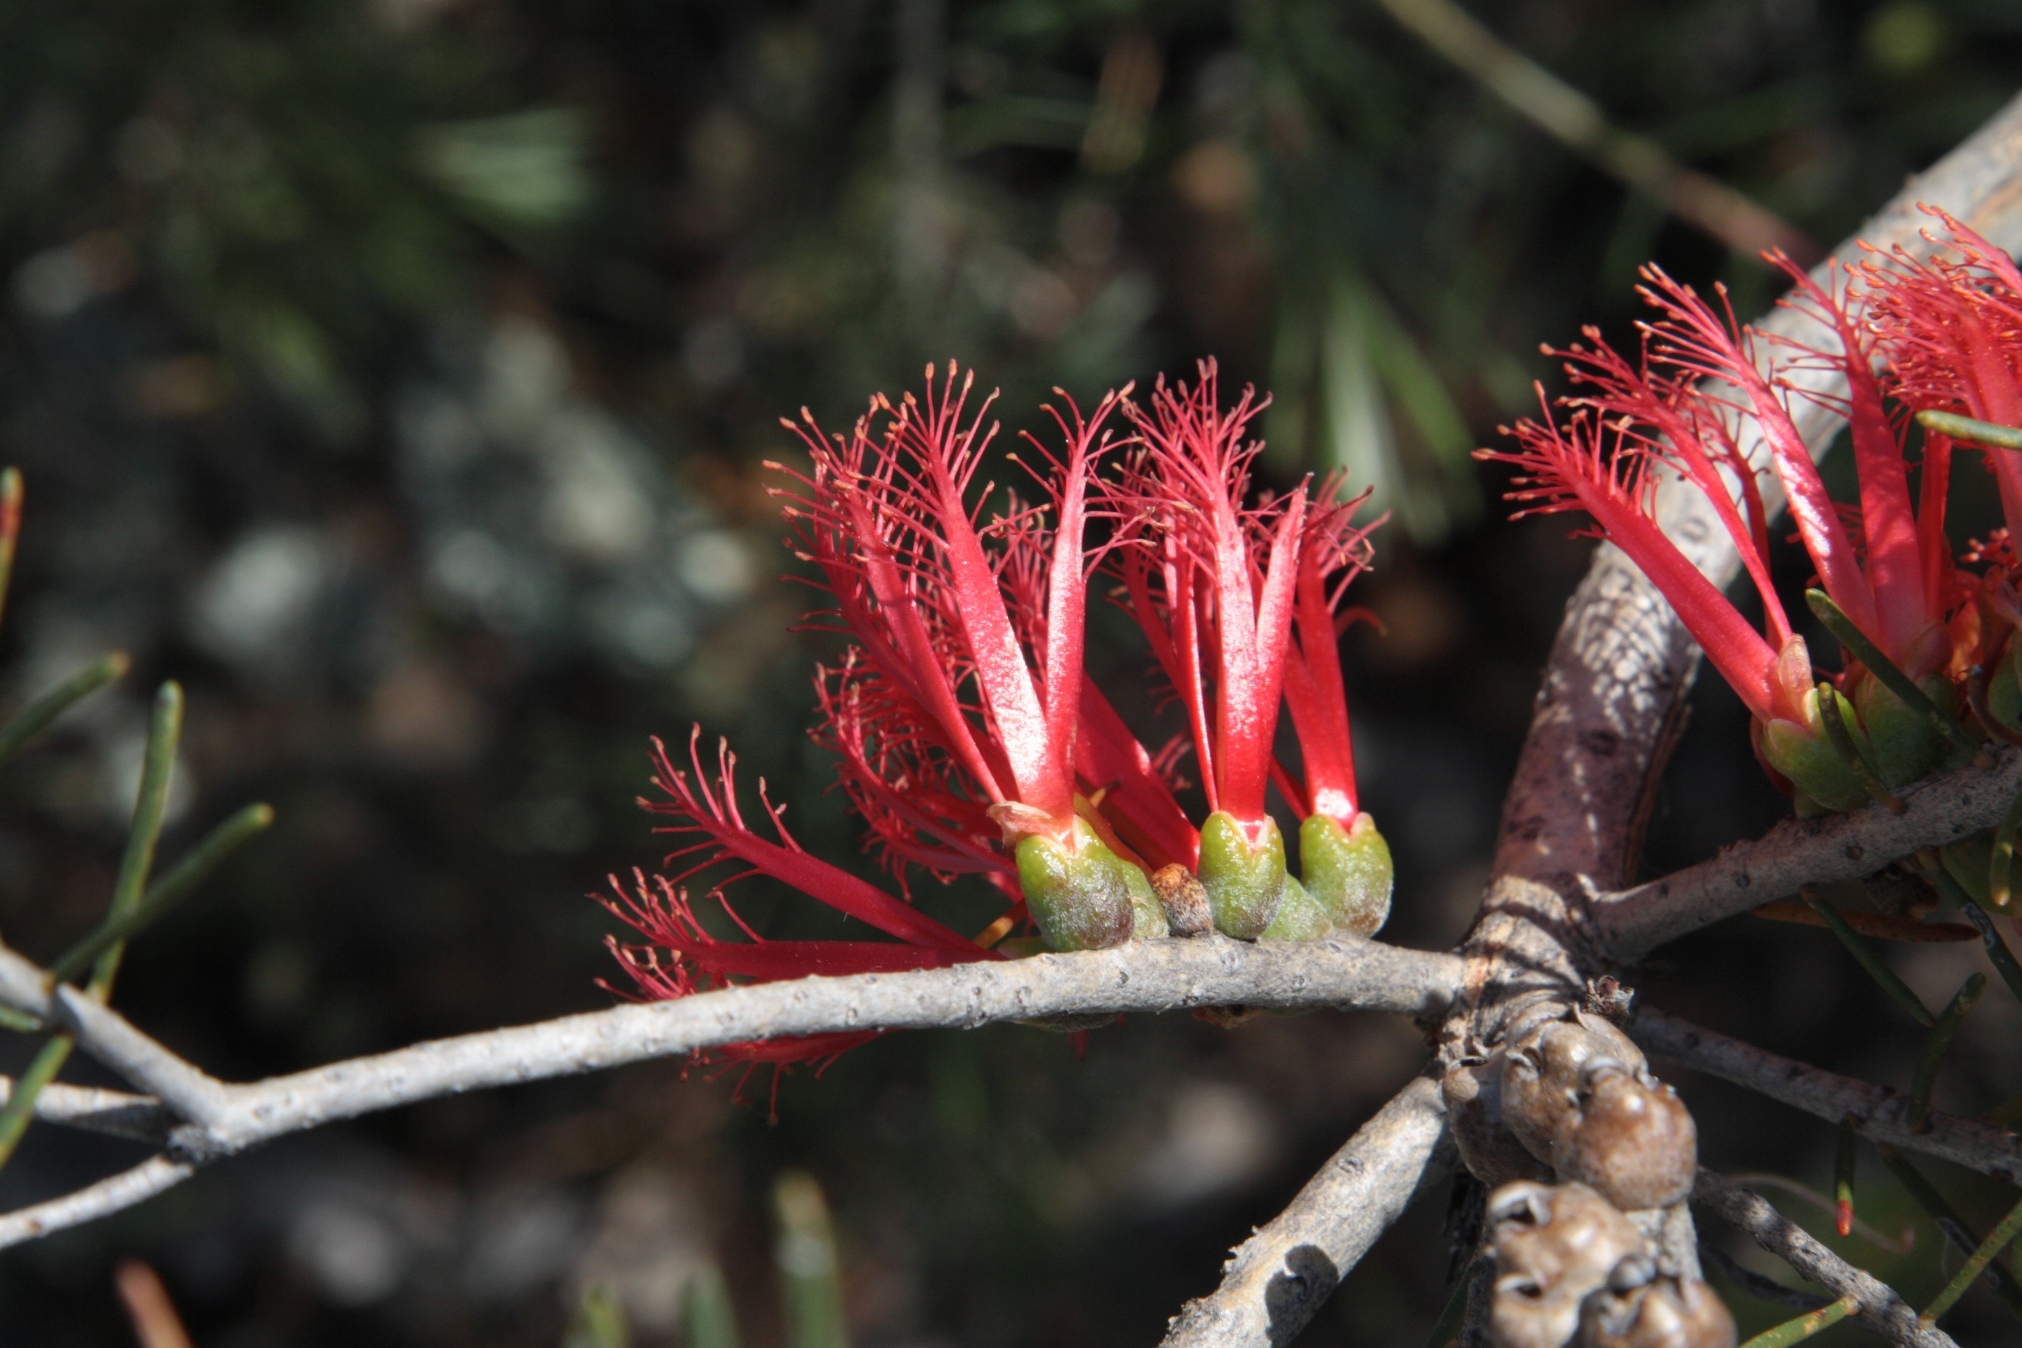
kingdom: Plantae
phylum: Tracheophyta
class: Magnoliopsida
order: Myrtales
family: Myrtaceae
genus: Melaleuca
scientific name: Melaleuca quadrifida
